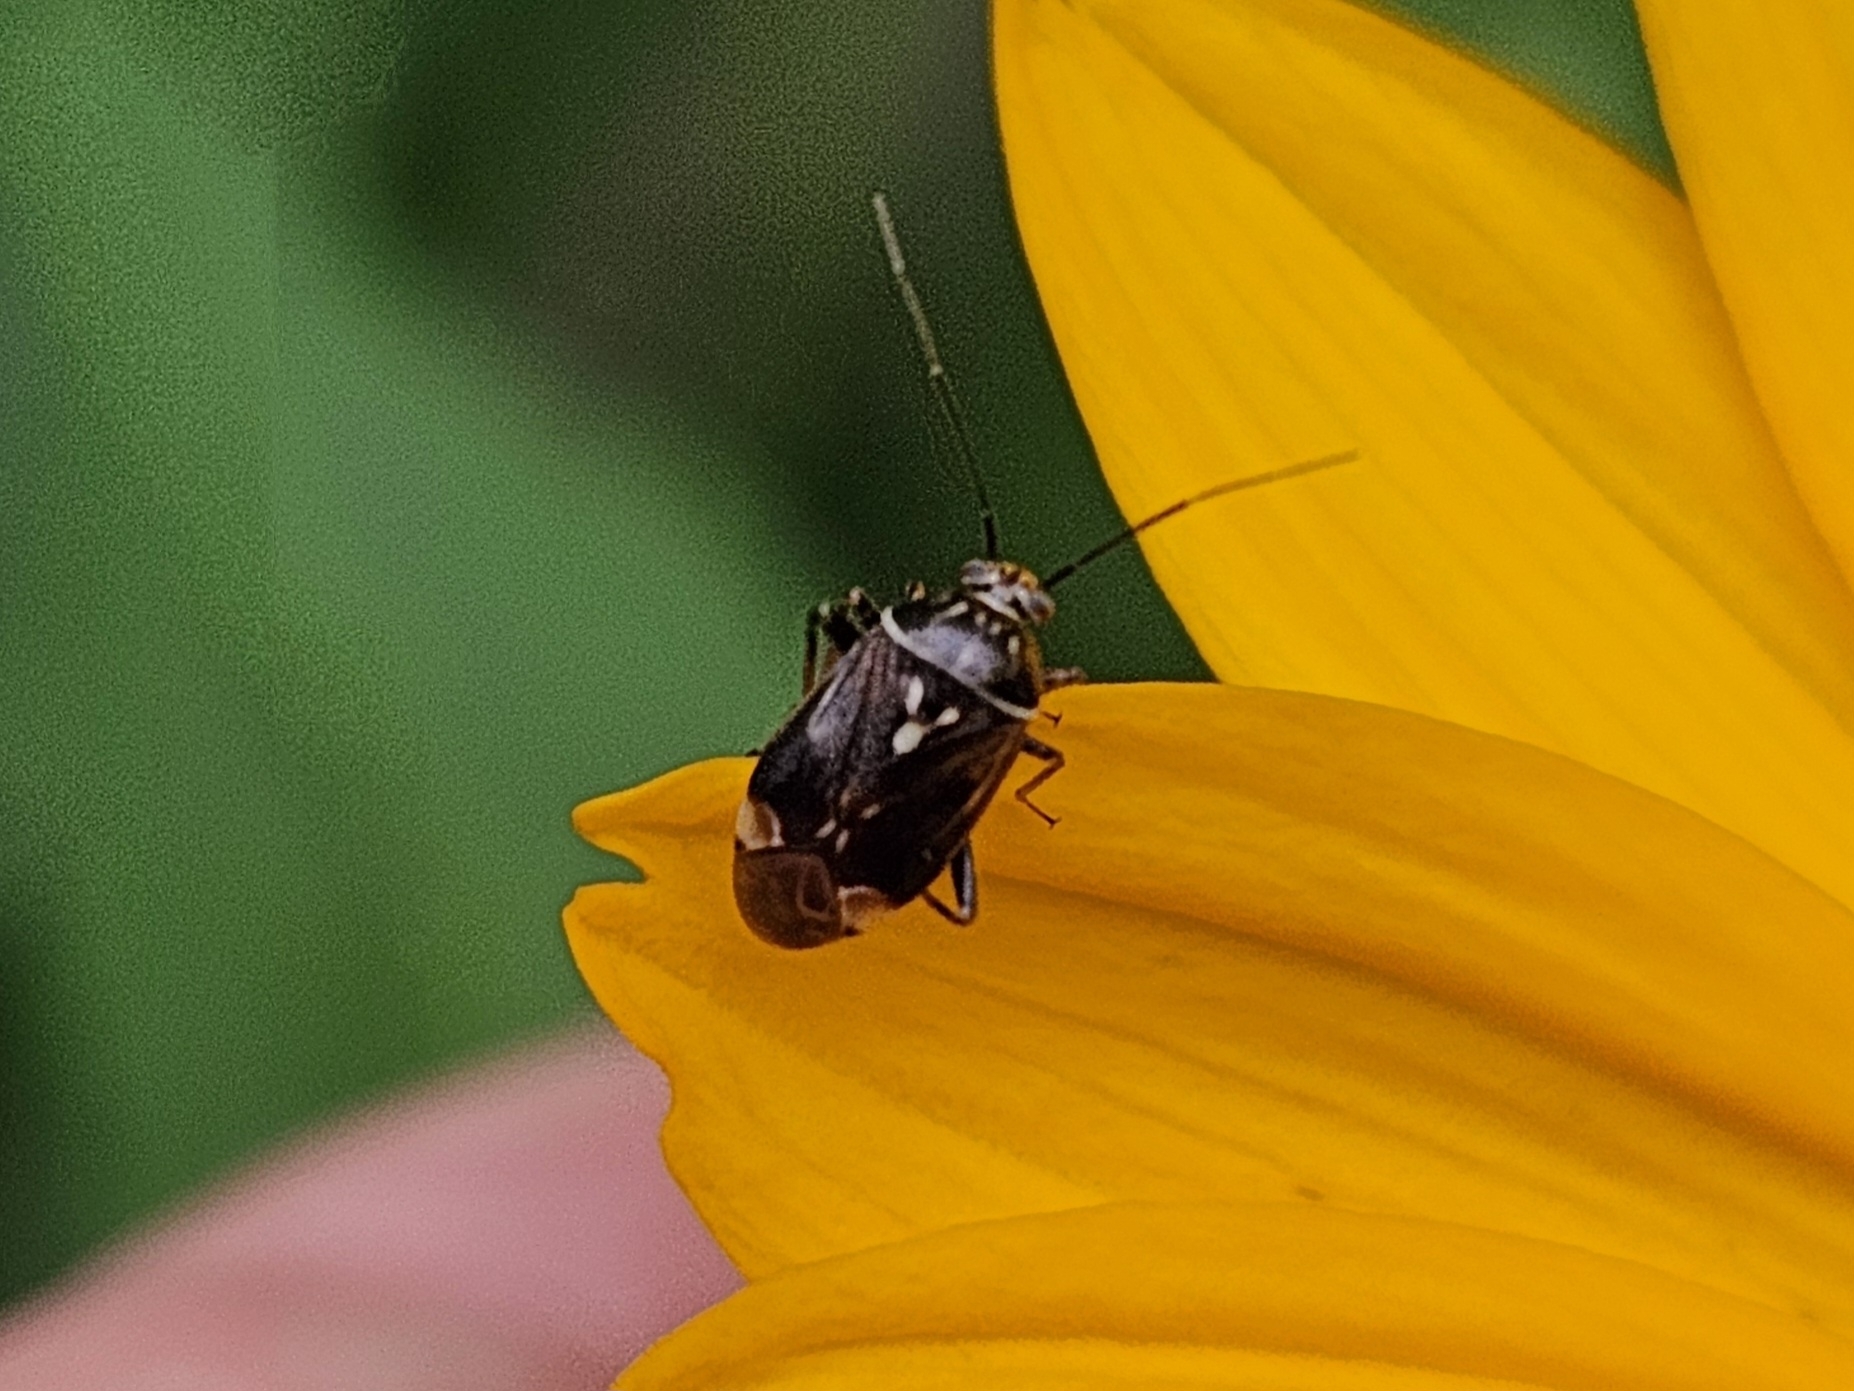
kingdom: Animalia
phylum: Arthropoda
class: Insecta
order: Hemiptera
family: Miridae
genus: Lygus
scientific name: Lygus lineolaris
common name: North american tarnished plant bug
